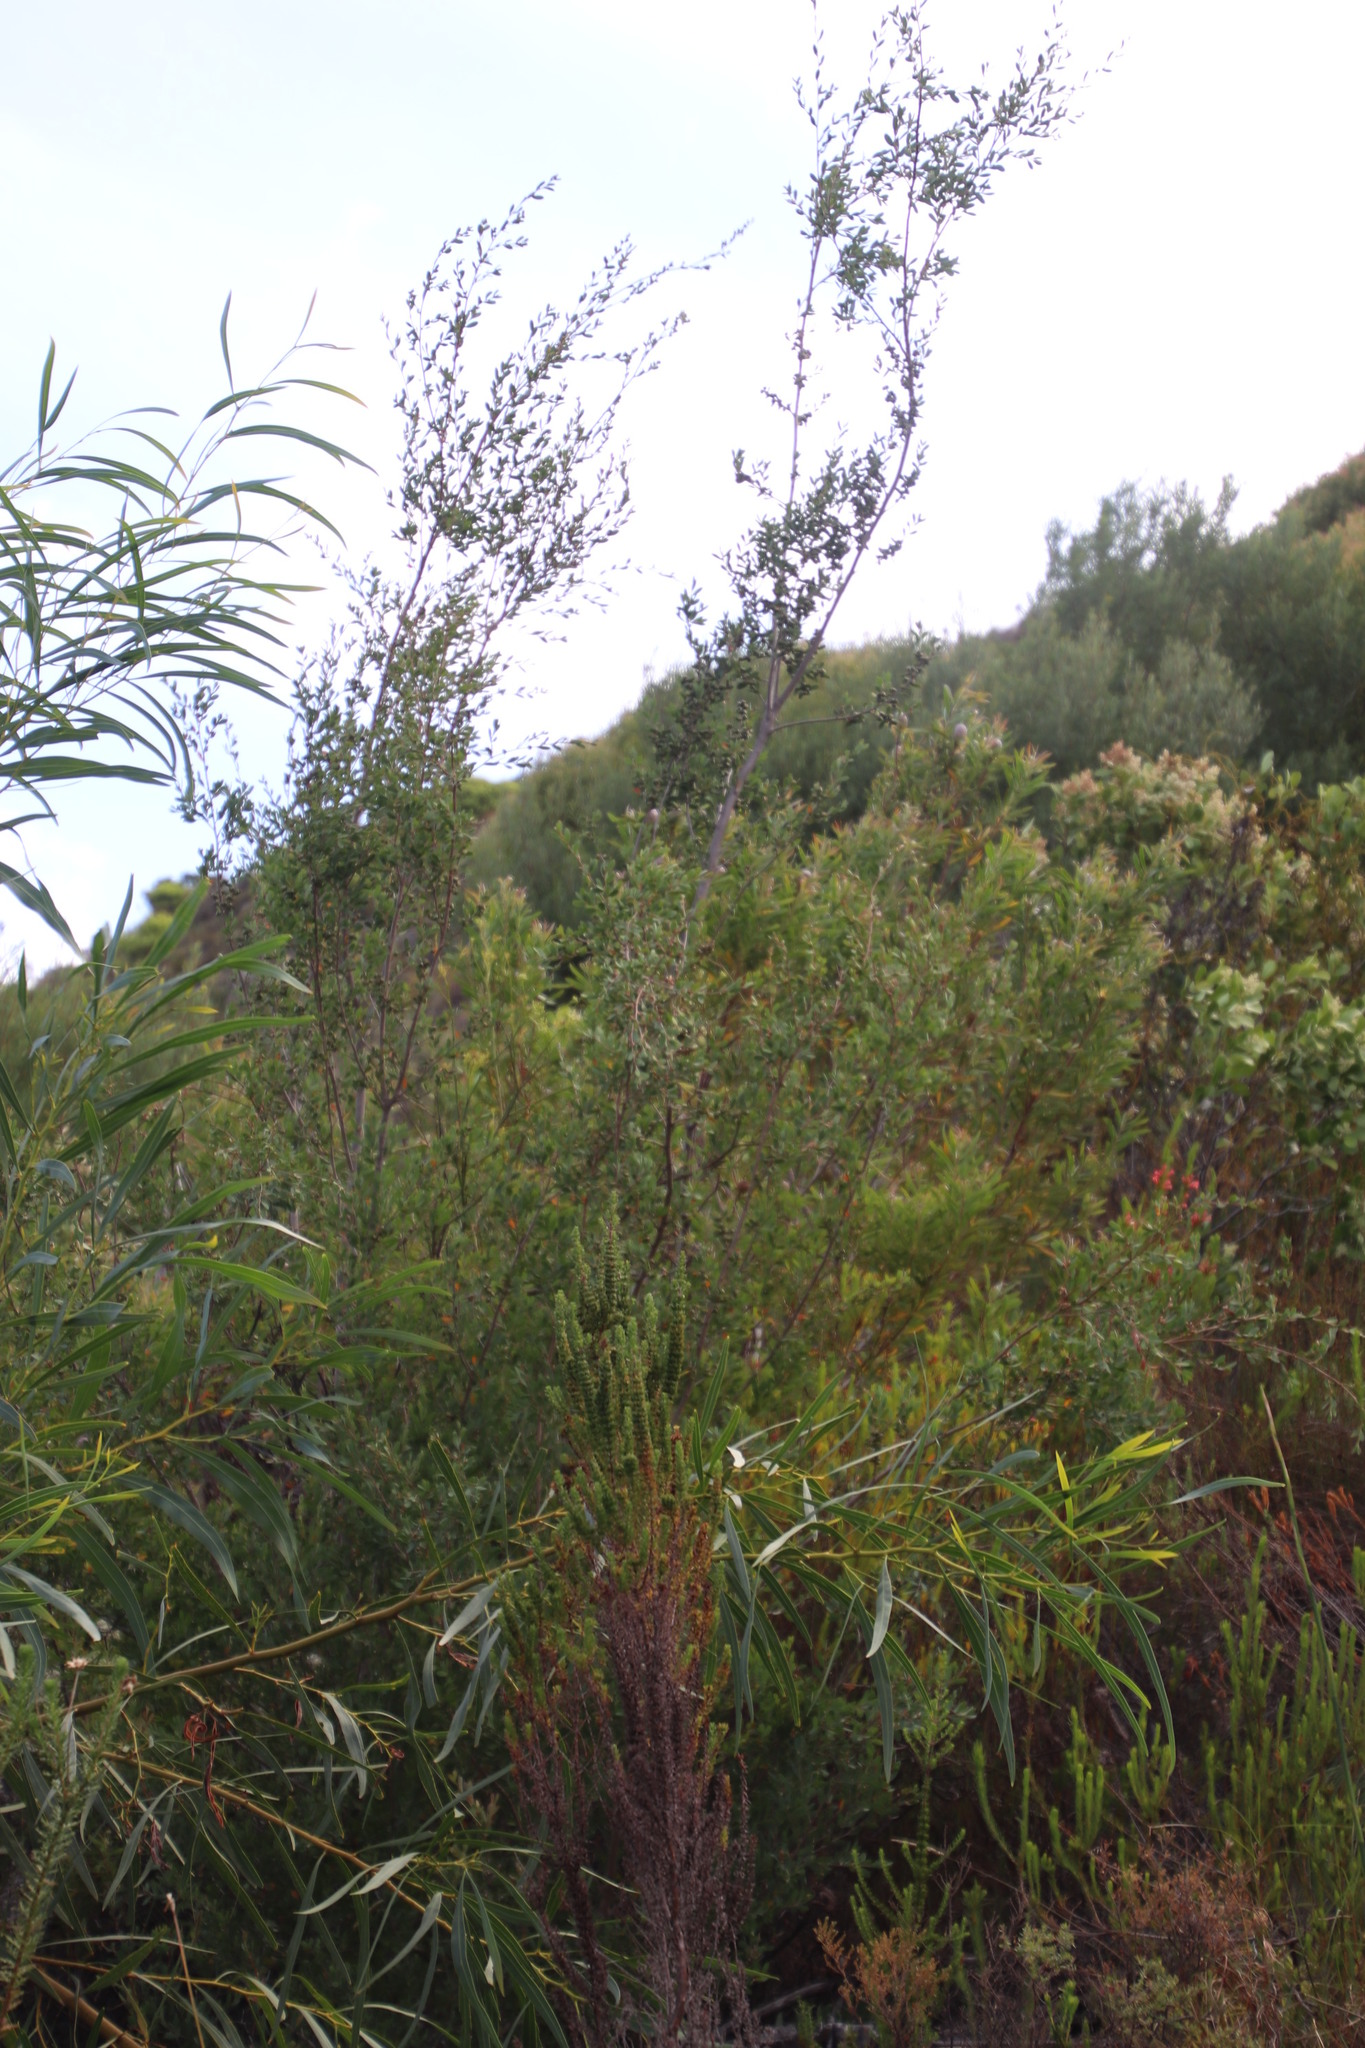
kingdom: Plantae
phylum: Tracheophyta
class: Magnoliopsida
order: Myrtales
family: Myrtaceae
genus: Leptospermum
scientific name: Leptospermum laevigatum
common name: Australian teatree
